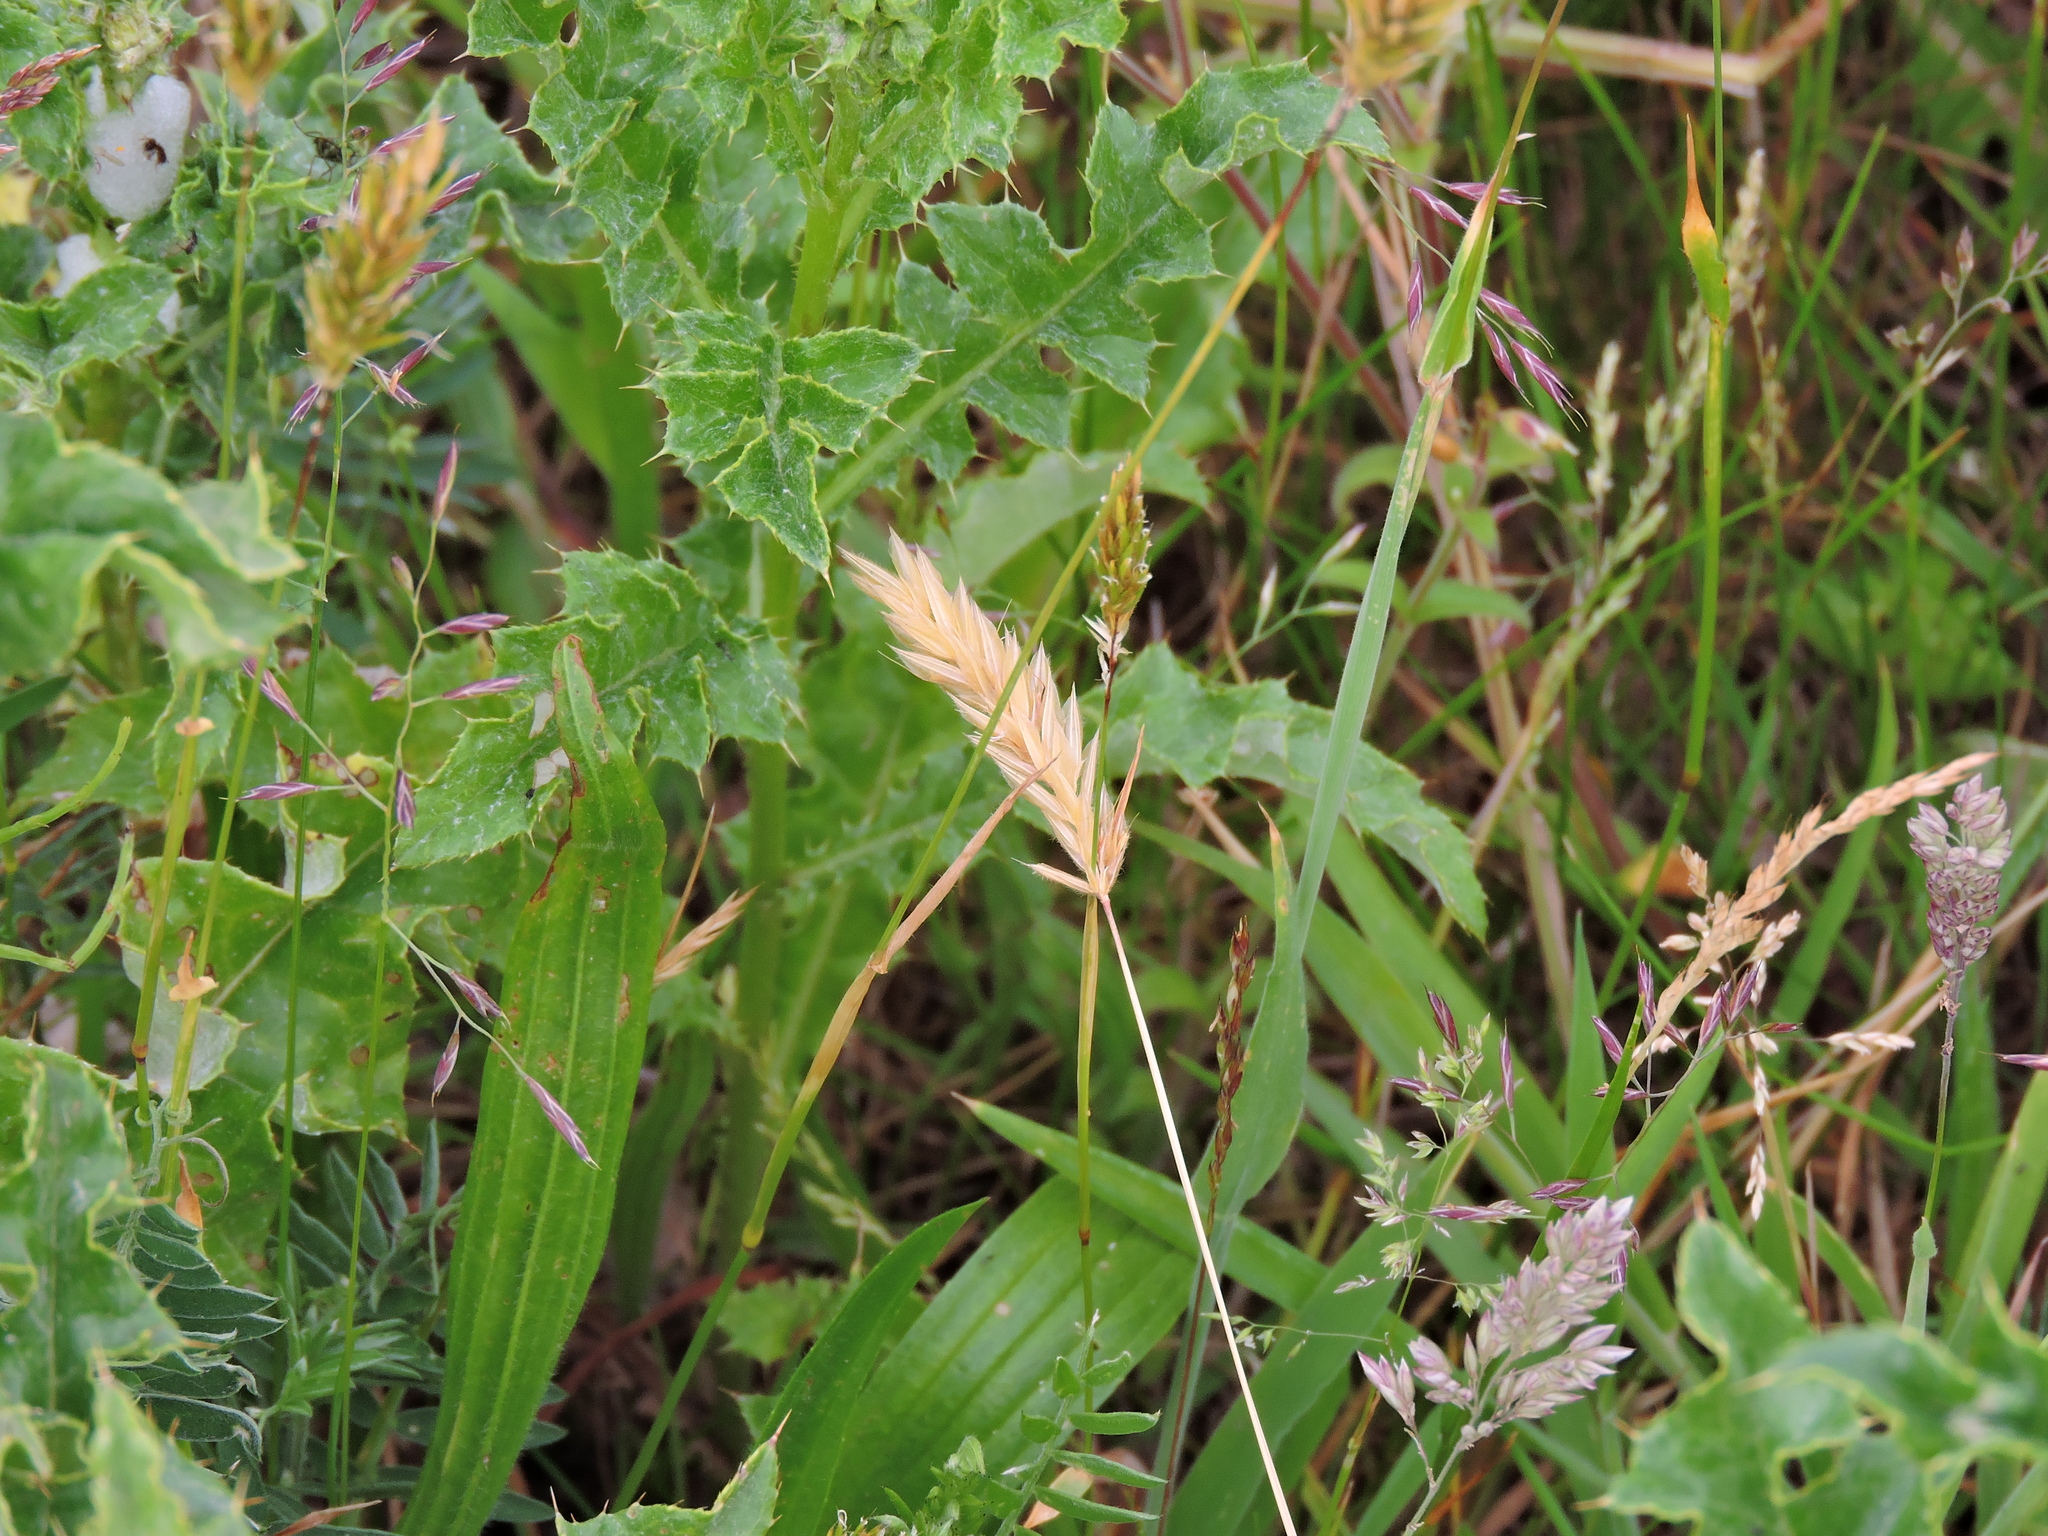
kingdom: Plantae
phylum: Tracheophyta
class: Liliopsida
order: Poales
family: Poaceae
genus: Anthoxanthum
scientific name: Anthoxanthum odoratum
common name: Sweet vernalgrass
